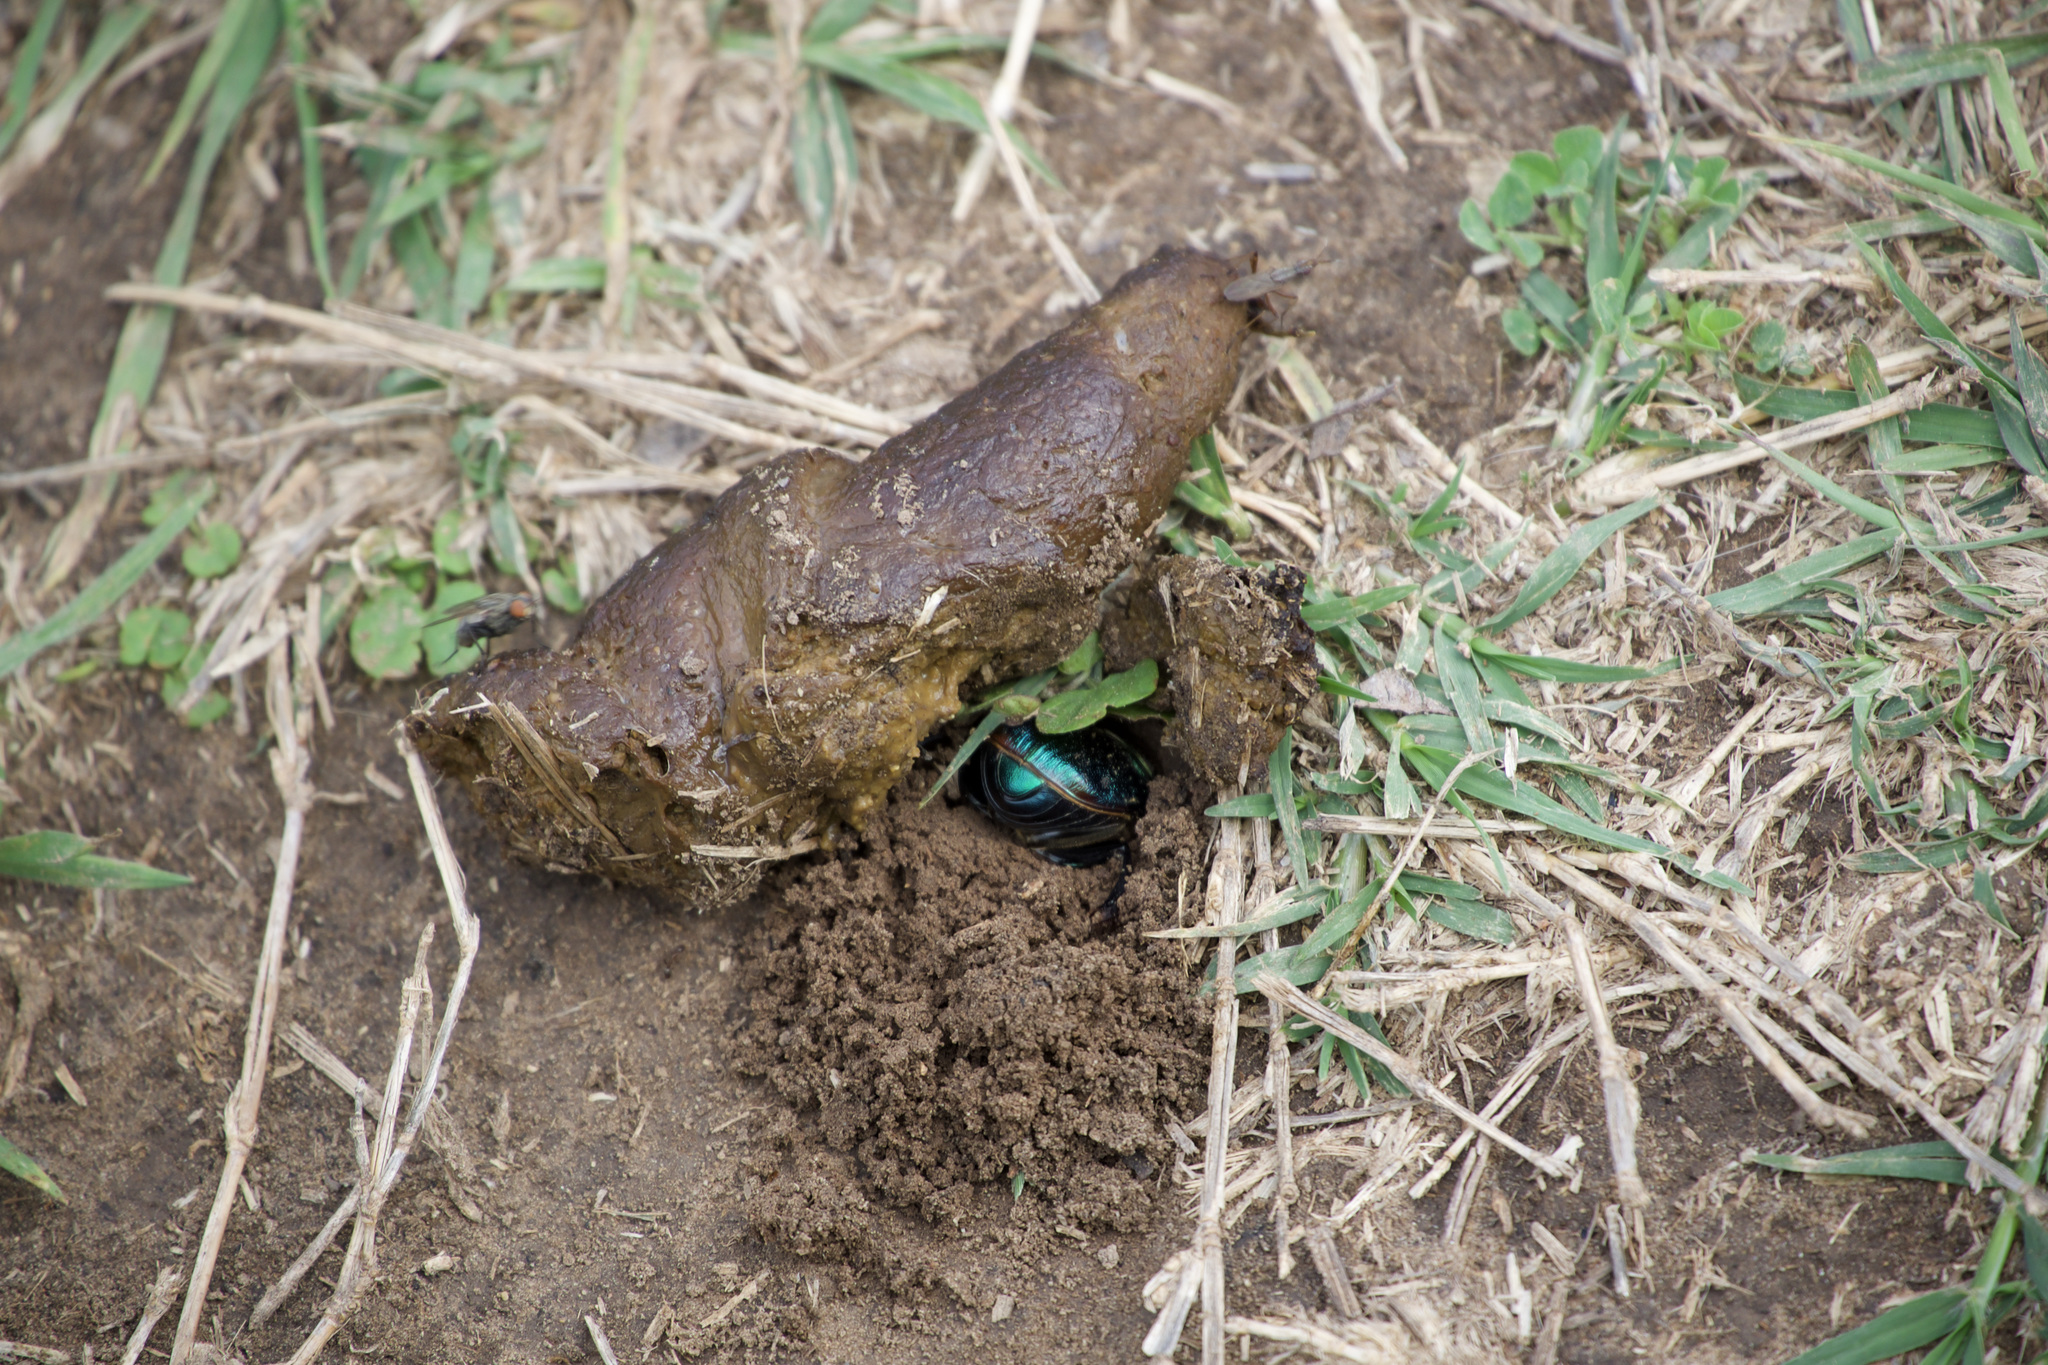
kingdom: Animalia
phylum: Arthropoda
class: Insecta
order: Coleoptera
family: Scarabaeidae
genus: Phanaeus
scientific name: Phanaeus difformis
